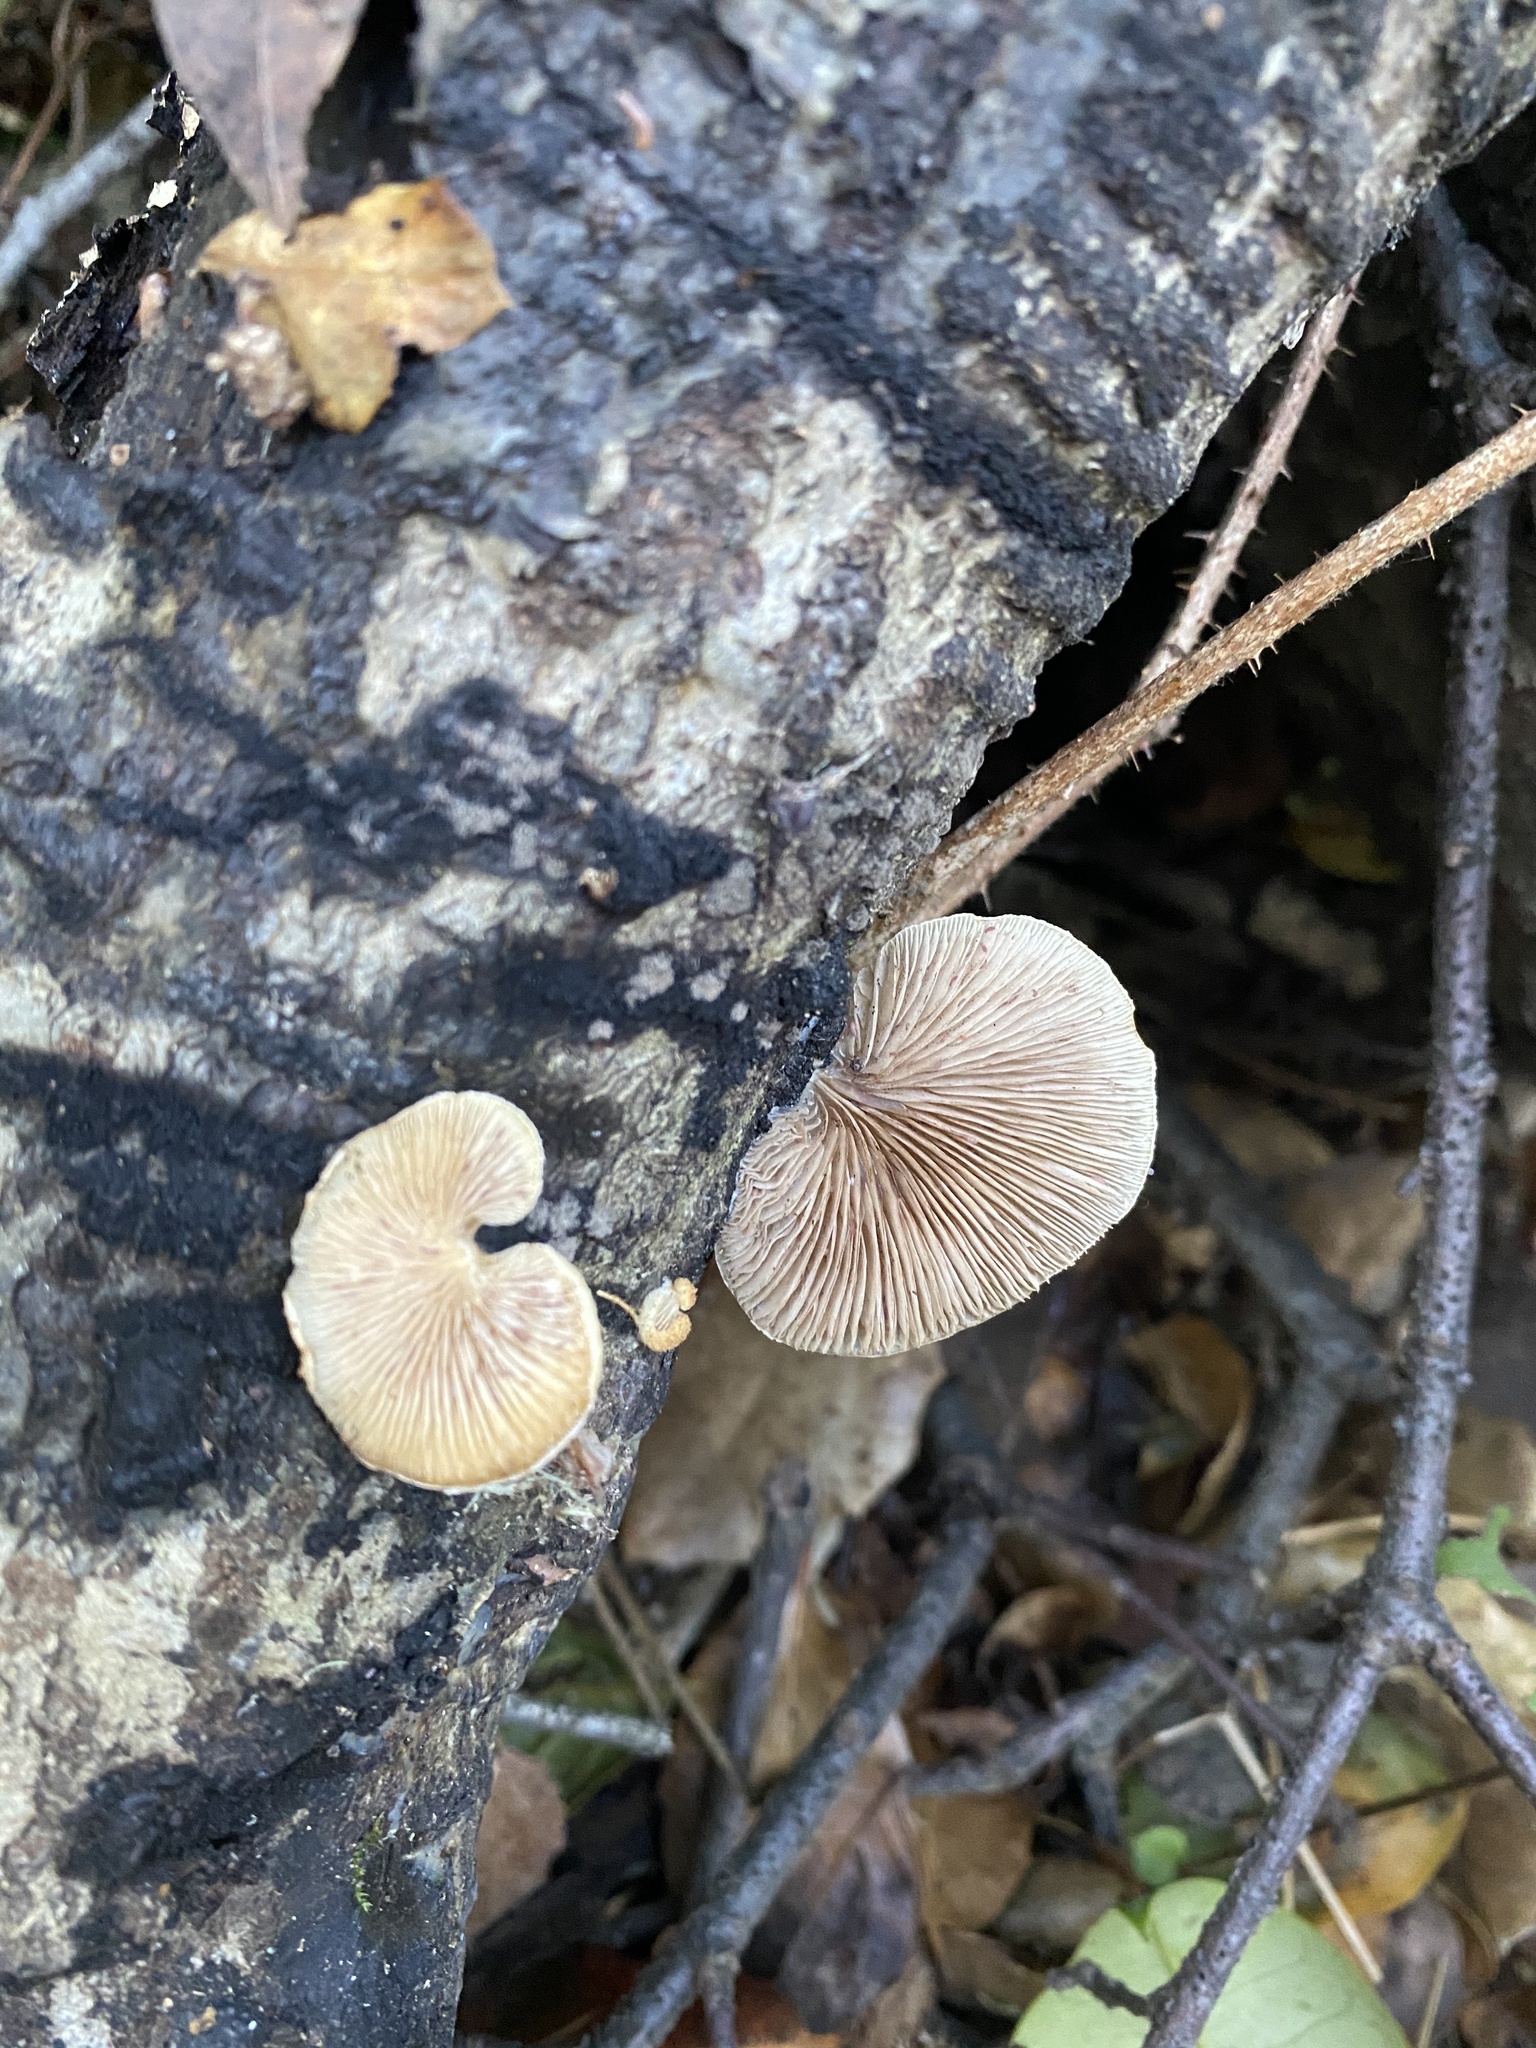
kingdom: Fungi
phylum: Basidiomycota
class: Agaricomycetes
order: Agaricales
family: Crepidotaceae
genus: Crepidotus
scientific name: Crepidotus mollis
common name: Peeling oysterling
